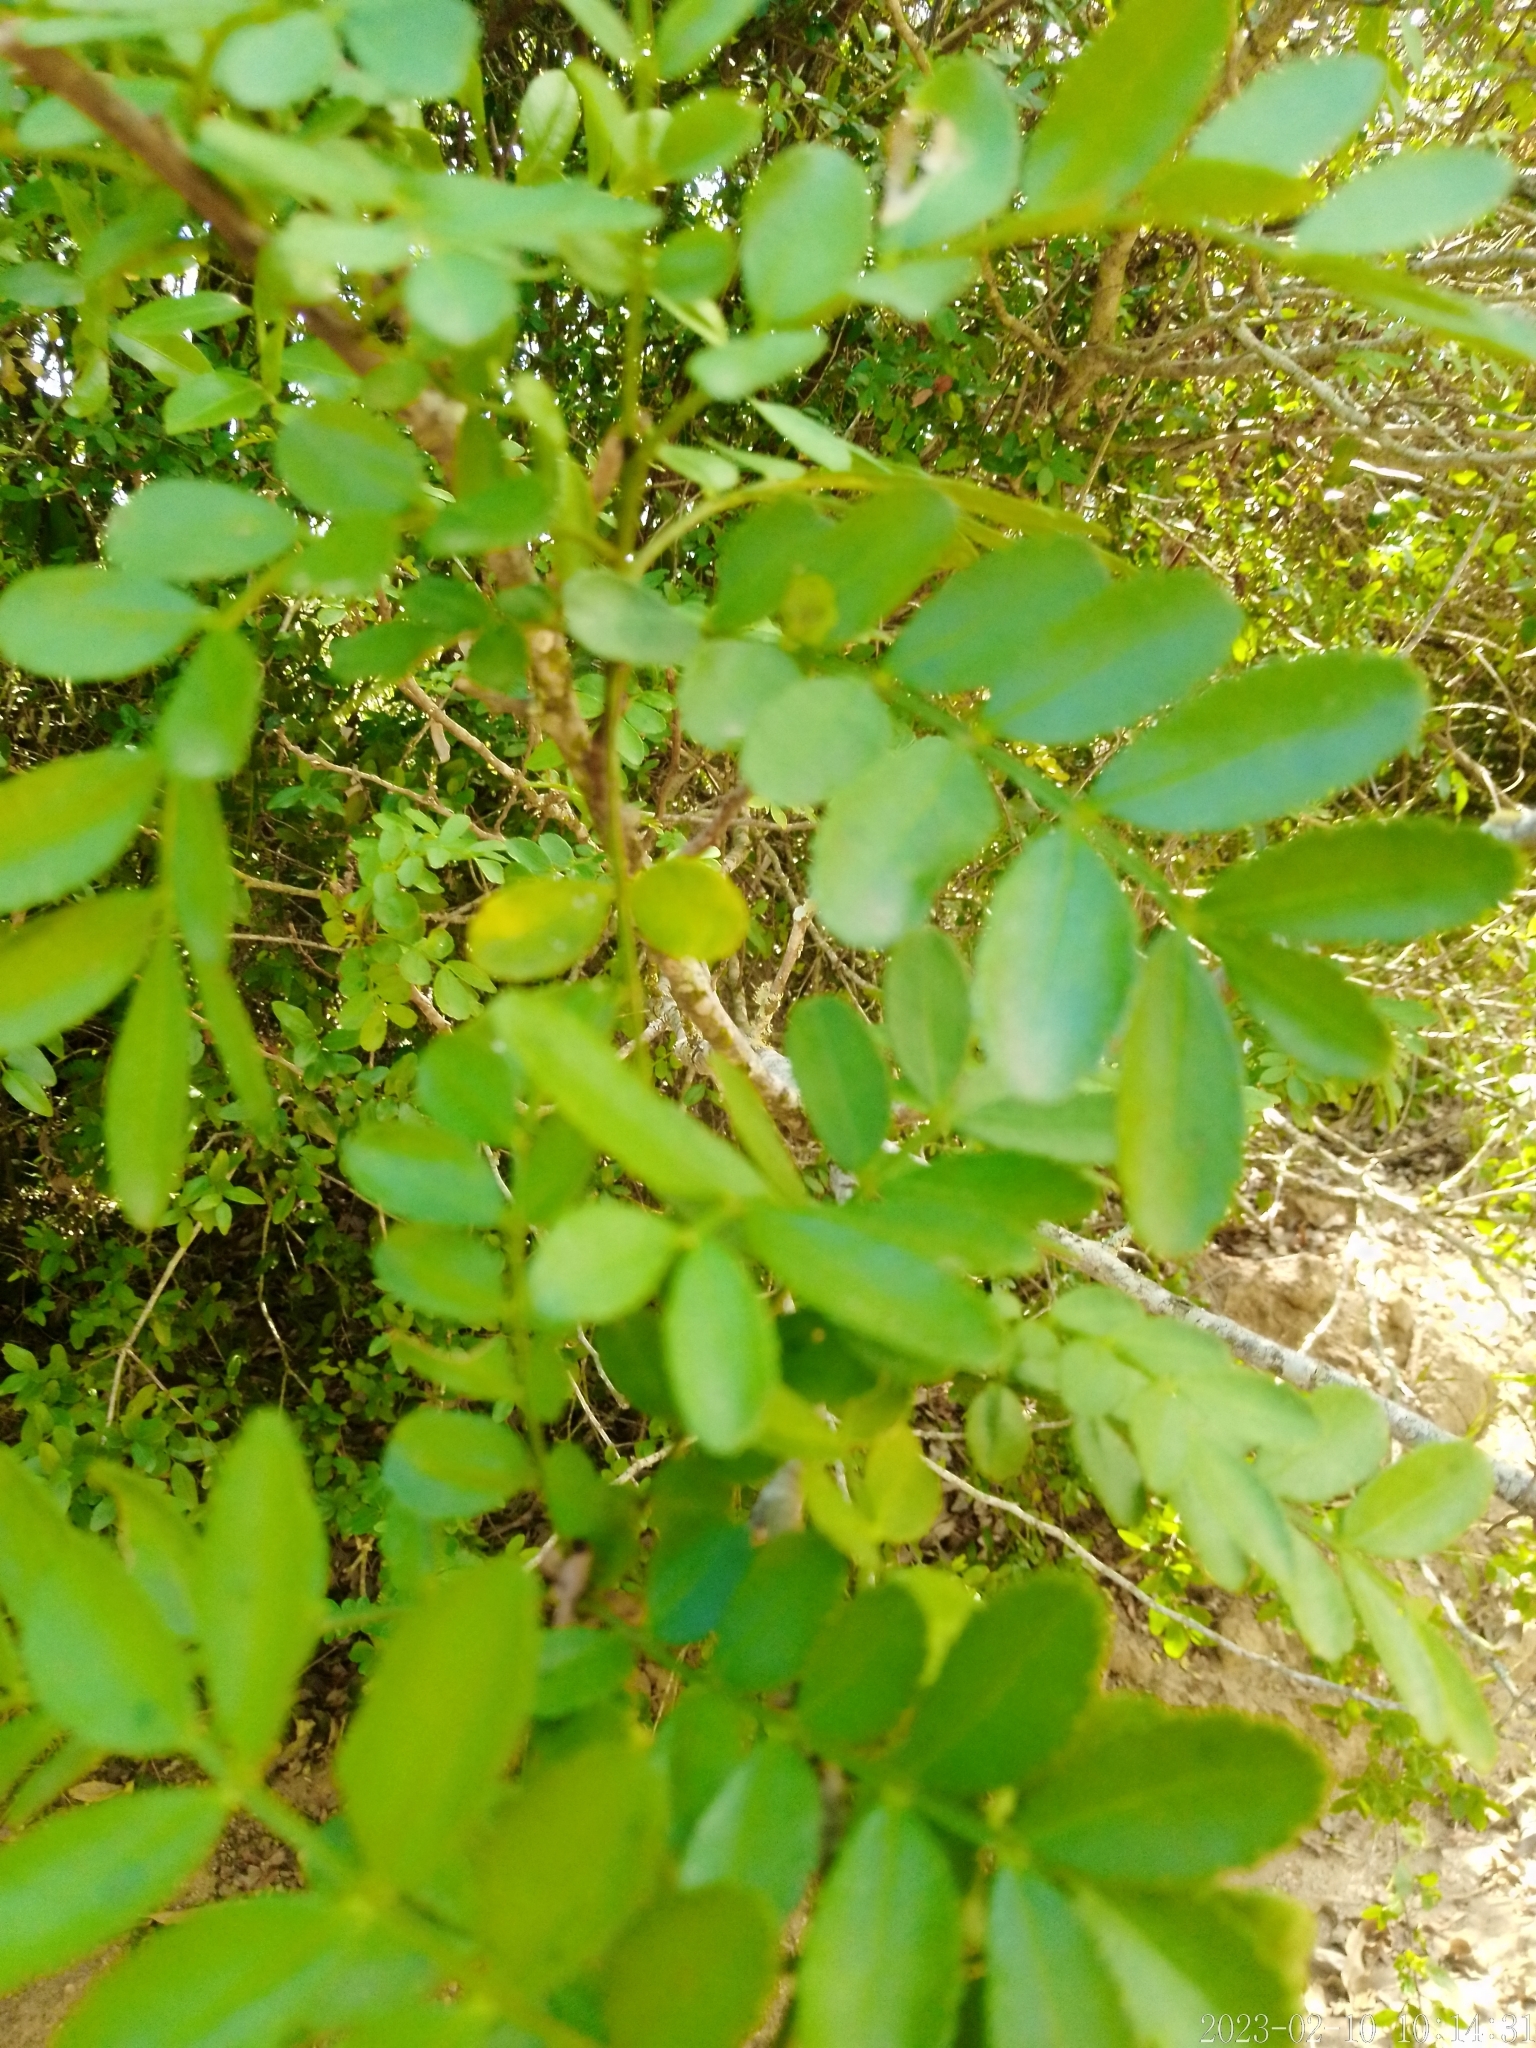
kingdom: Plantae
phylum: Tracheophyta
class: Magnoliopsida
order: Sapindales
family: Rutaceae
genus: Zanthoxylum
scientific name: Zanthoxylum fagara
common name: Lime prickly-ash
